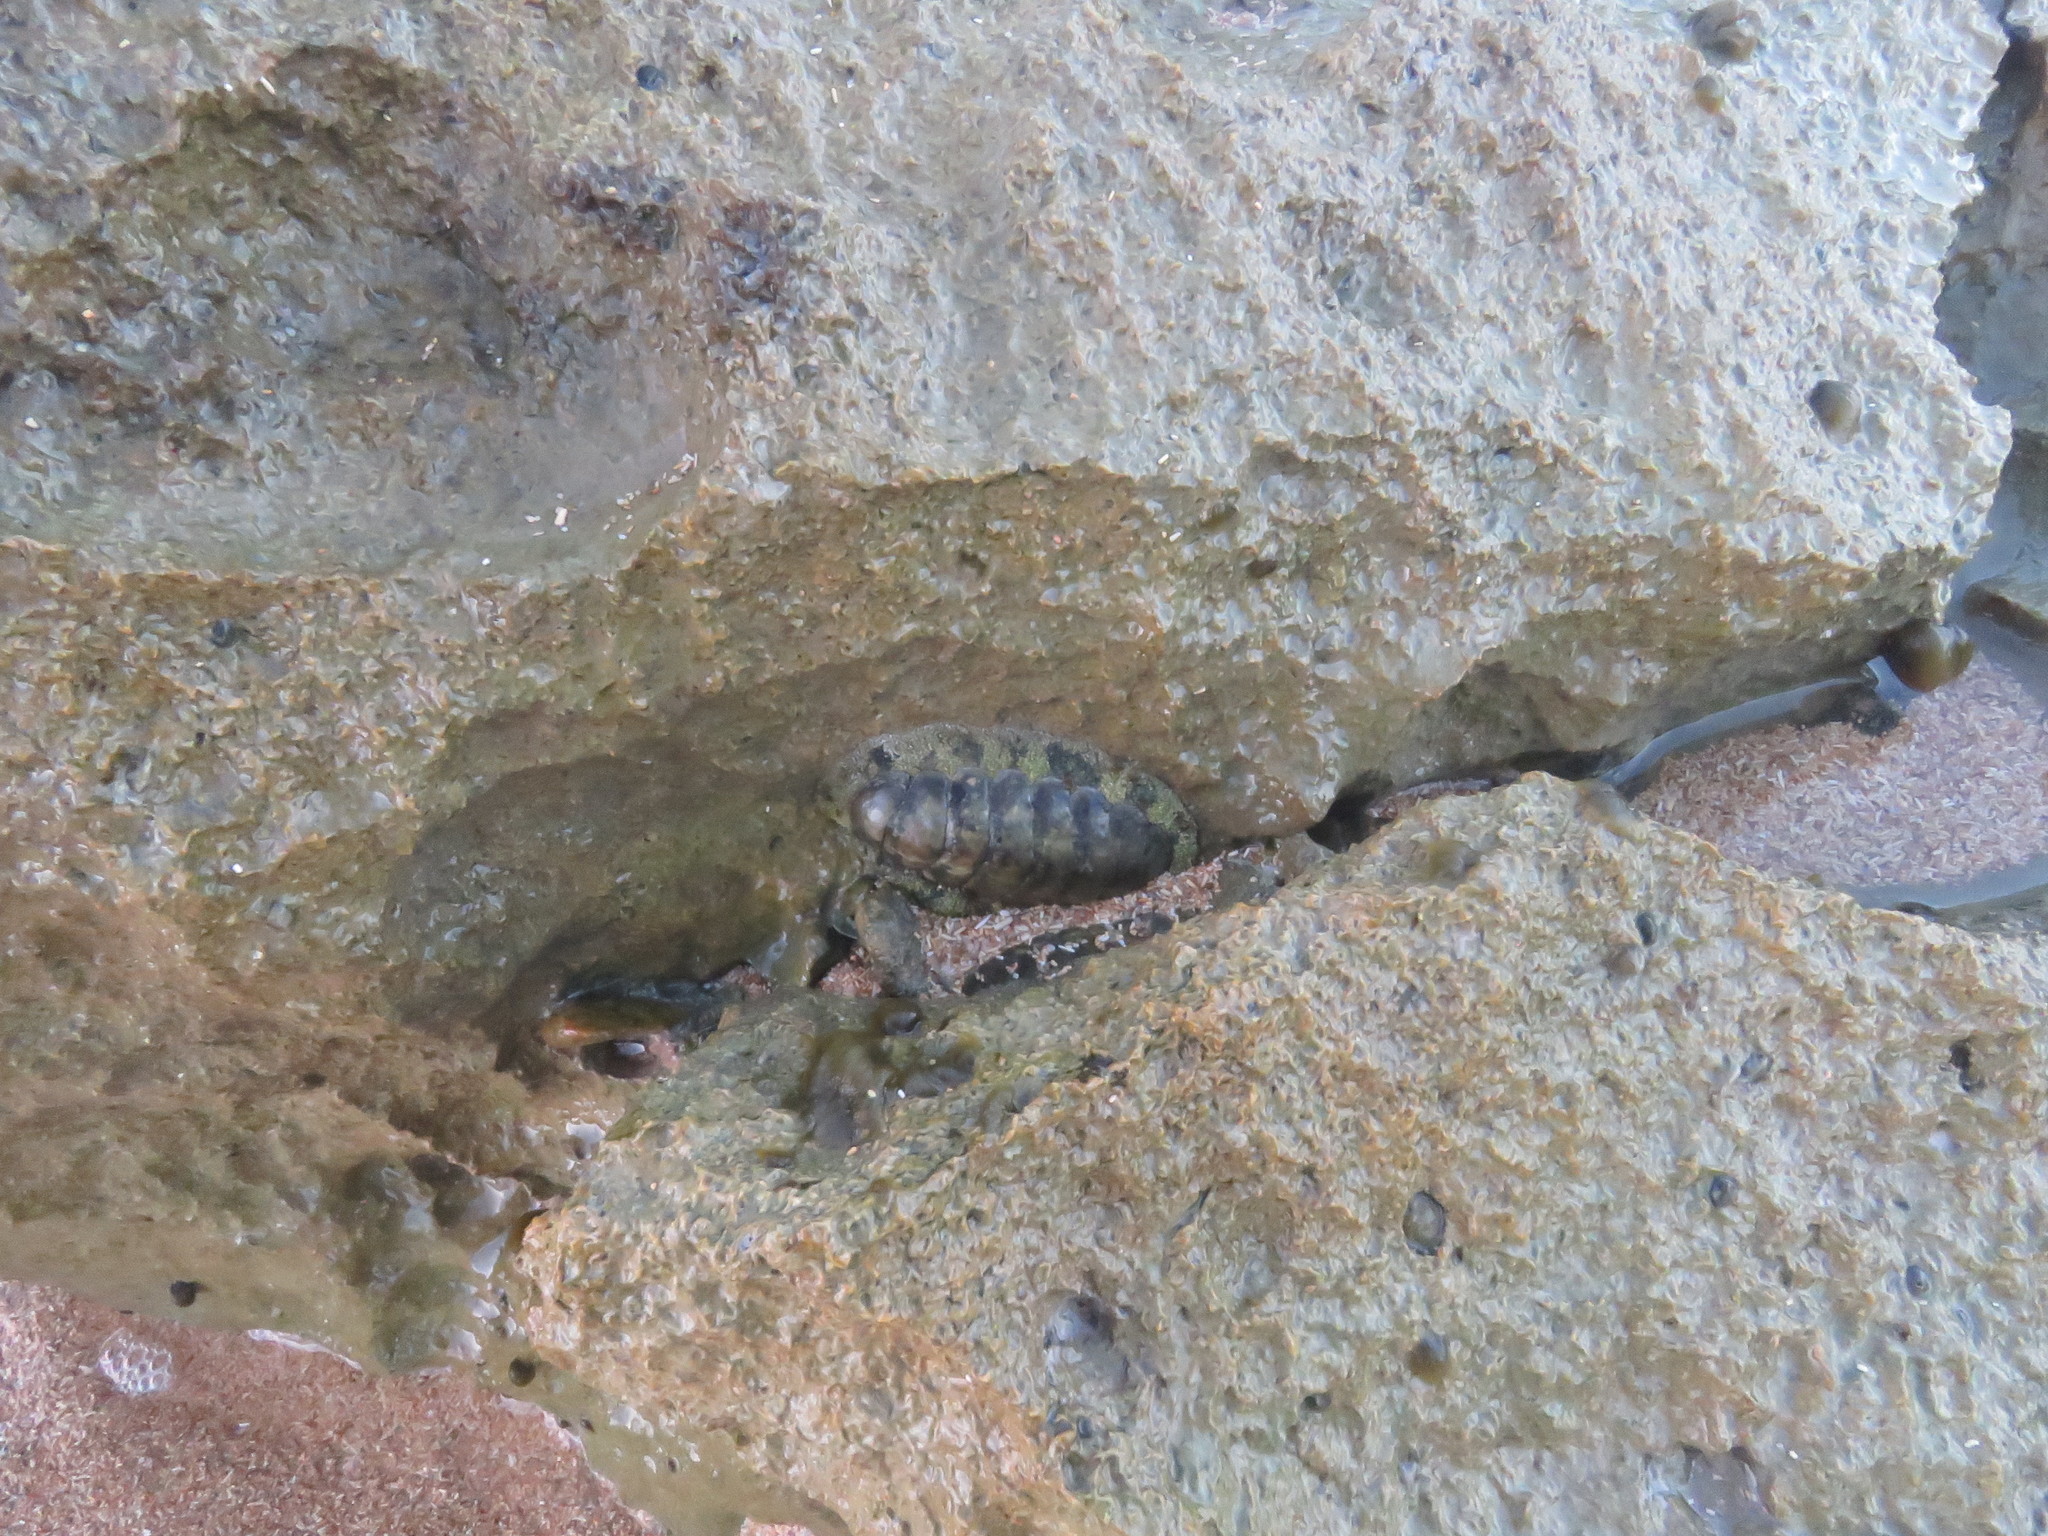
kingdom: Animalia
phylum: Mollusca
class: Polyplacophora
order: Chitonida
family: Chitonidae
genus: Acanthopleura
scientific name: Acanthopleura granulata
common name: West indian fuzzy chiton
